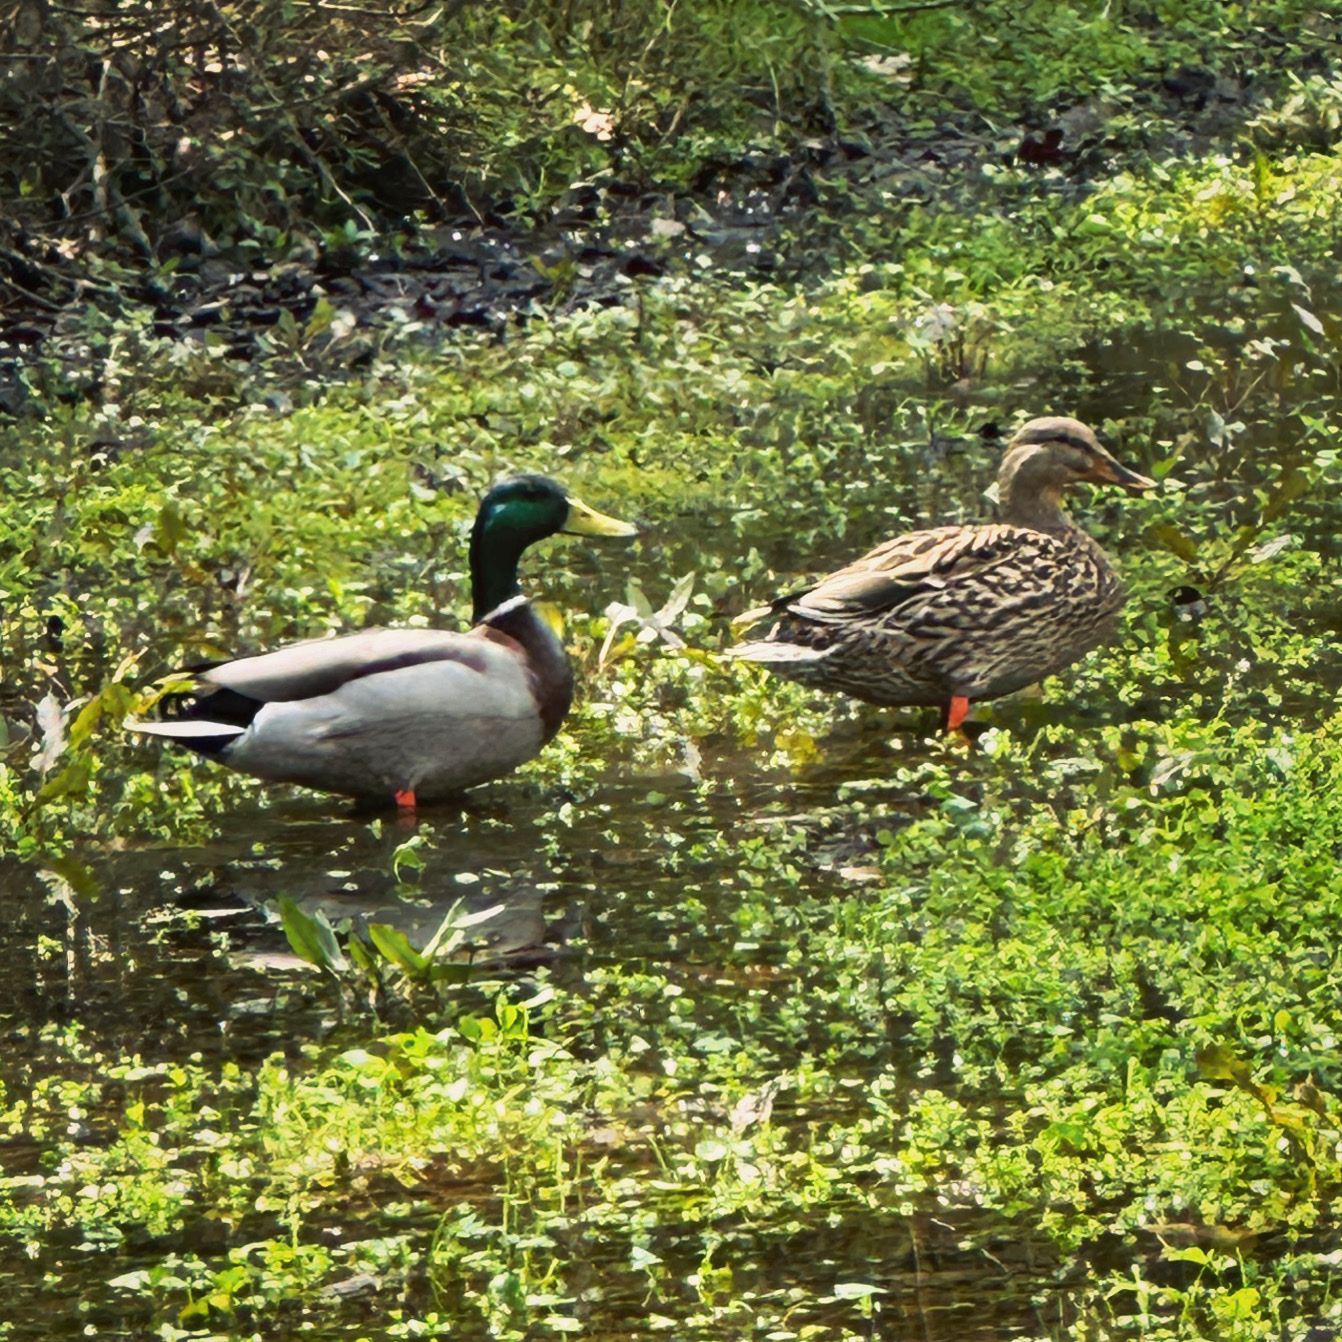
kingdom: Animalia
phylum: Chordata
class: Aves
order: Anseriformes
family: Anatidae
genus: Anas
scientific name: Anas platyrhynchos
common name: Mallard
